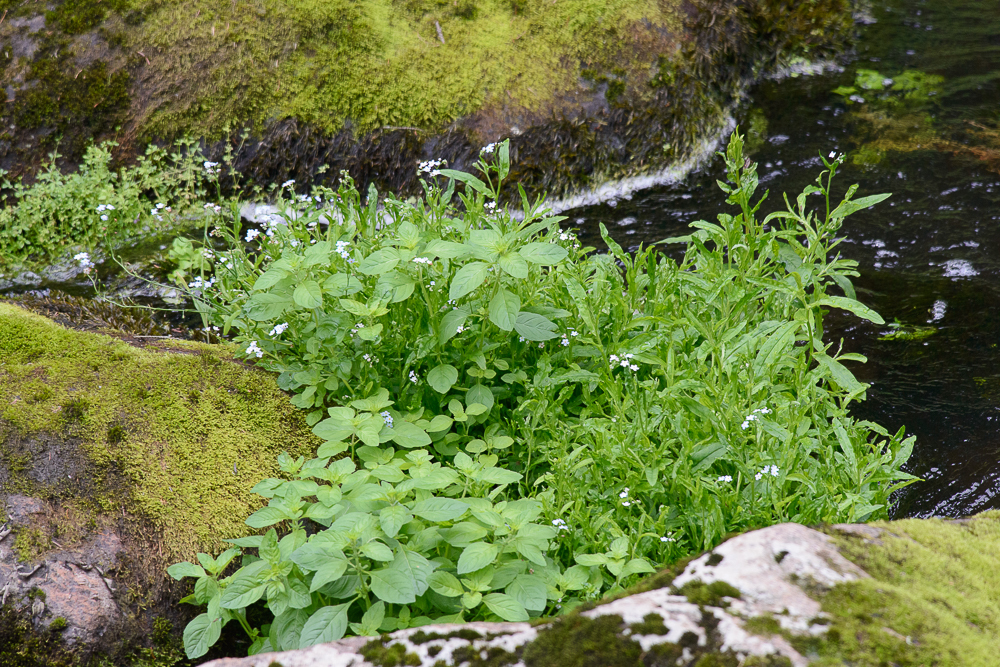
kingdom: Plantae
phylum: Tracheophyta
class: Magnoliopsida
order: Boraginales
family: Boraginaceae
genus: Myosotis
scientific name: Myosotis scorpioides
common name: Water forget-me-not
